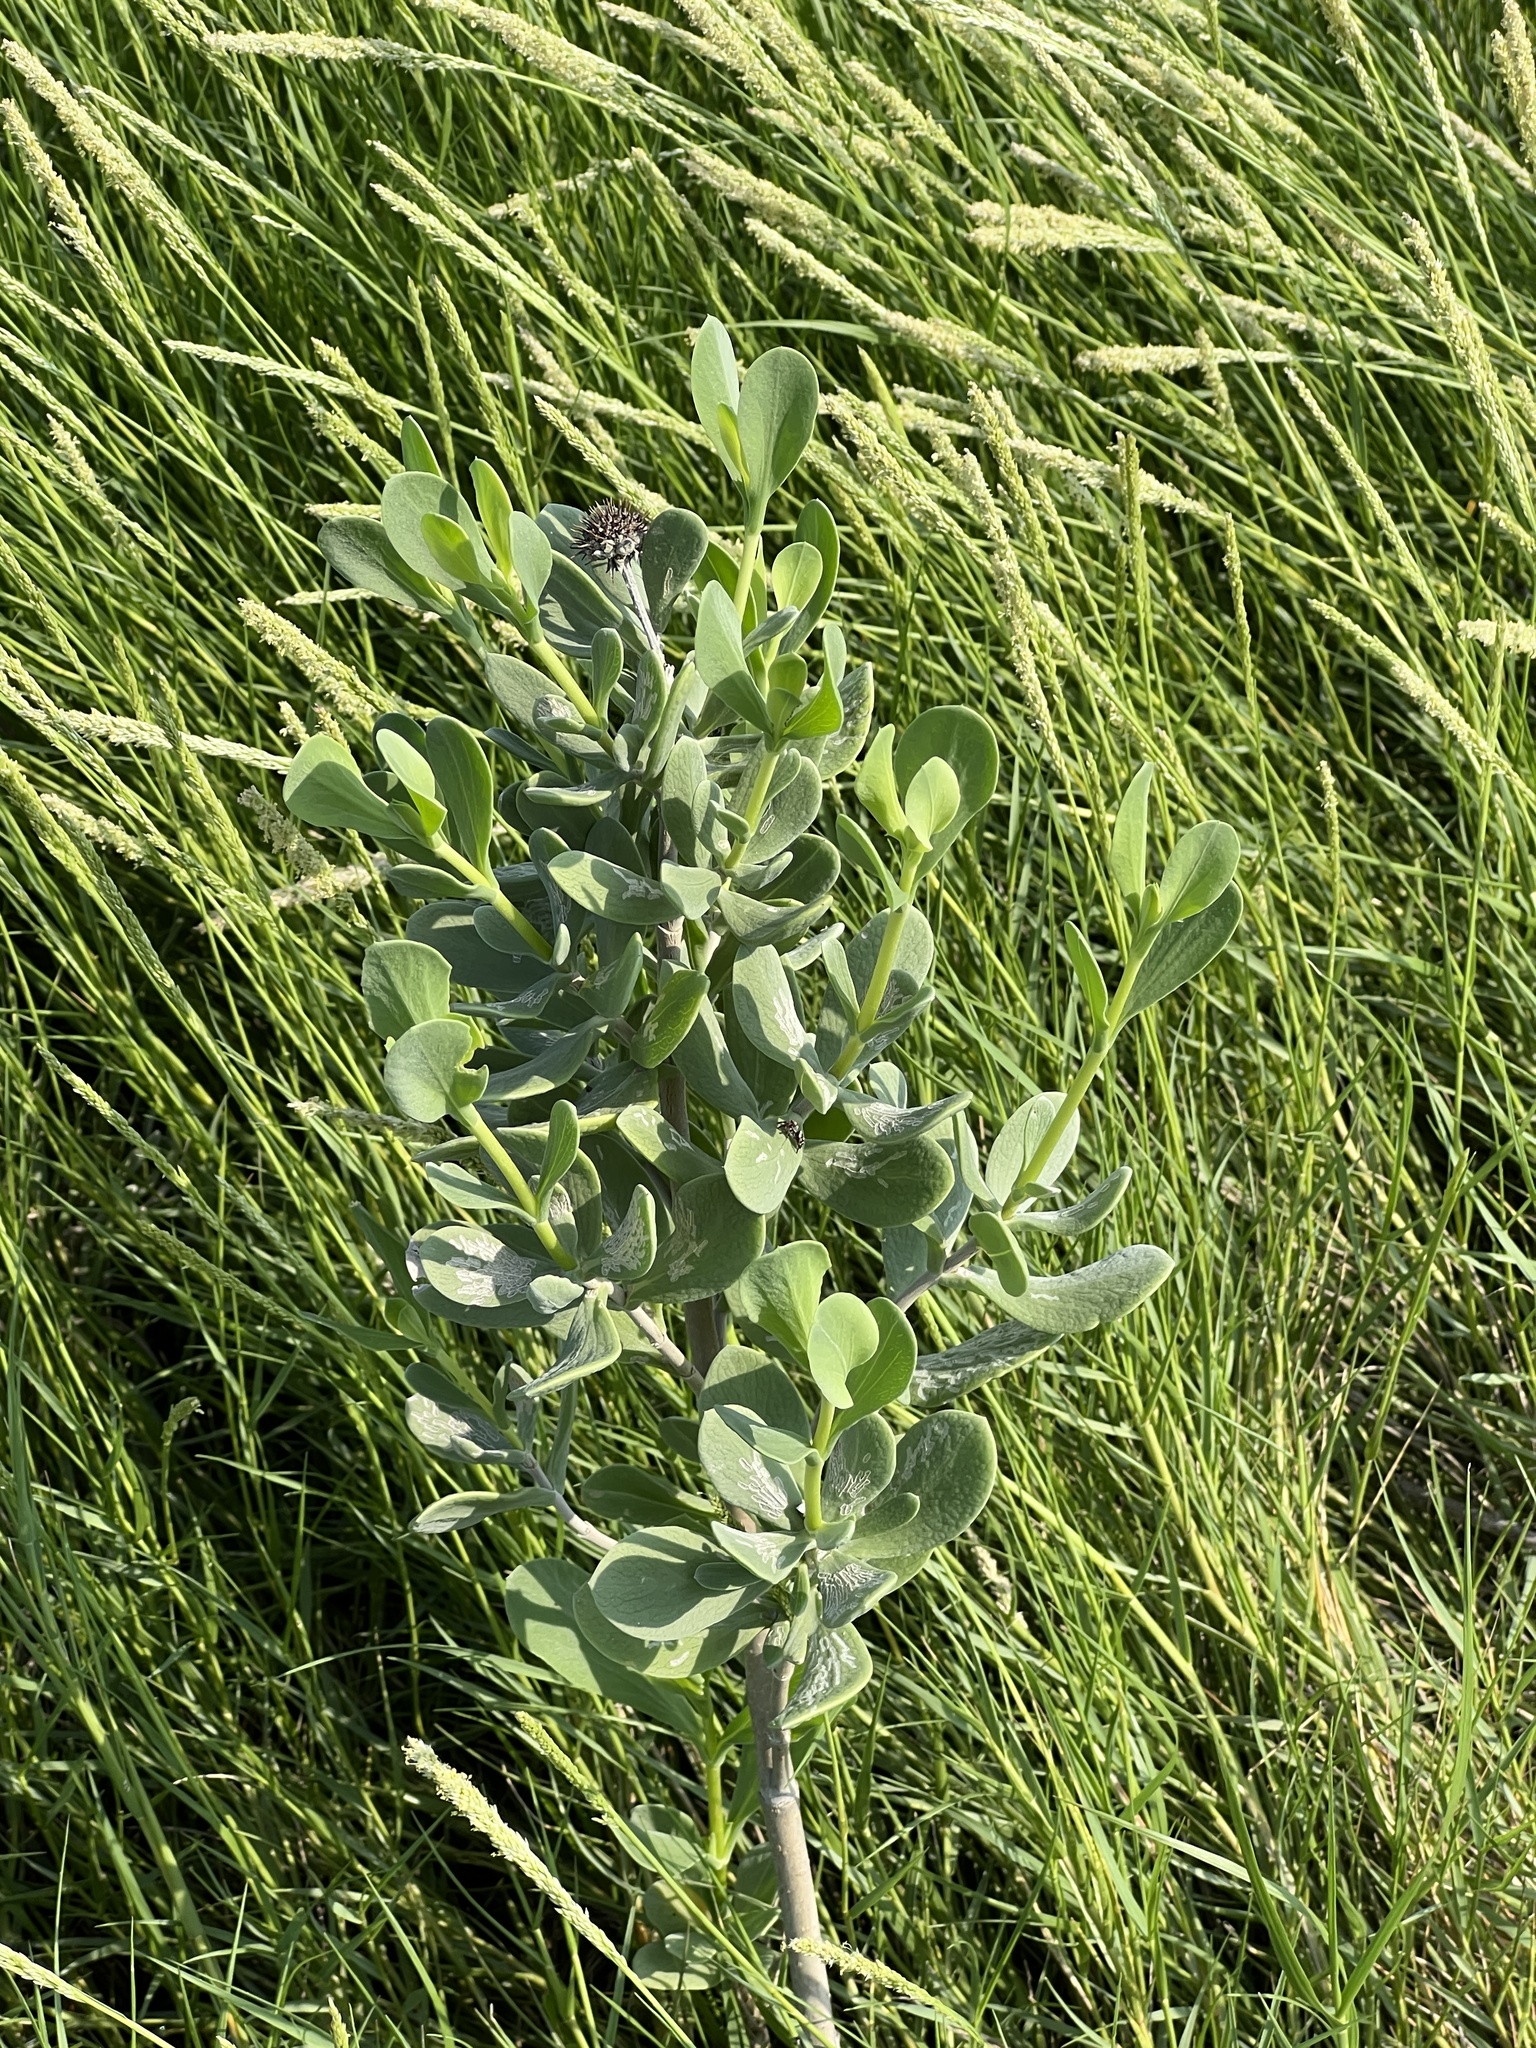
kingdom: Plantae
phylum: Tracheophyta
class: Magnoliopsida
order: Asterales
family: Asteraceae
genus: Borrichia
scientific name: Borrichia frutescens
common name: Sea oxeye
